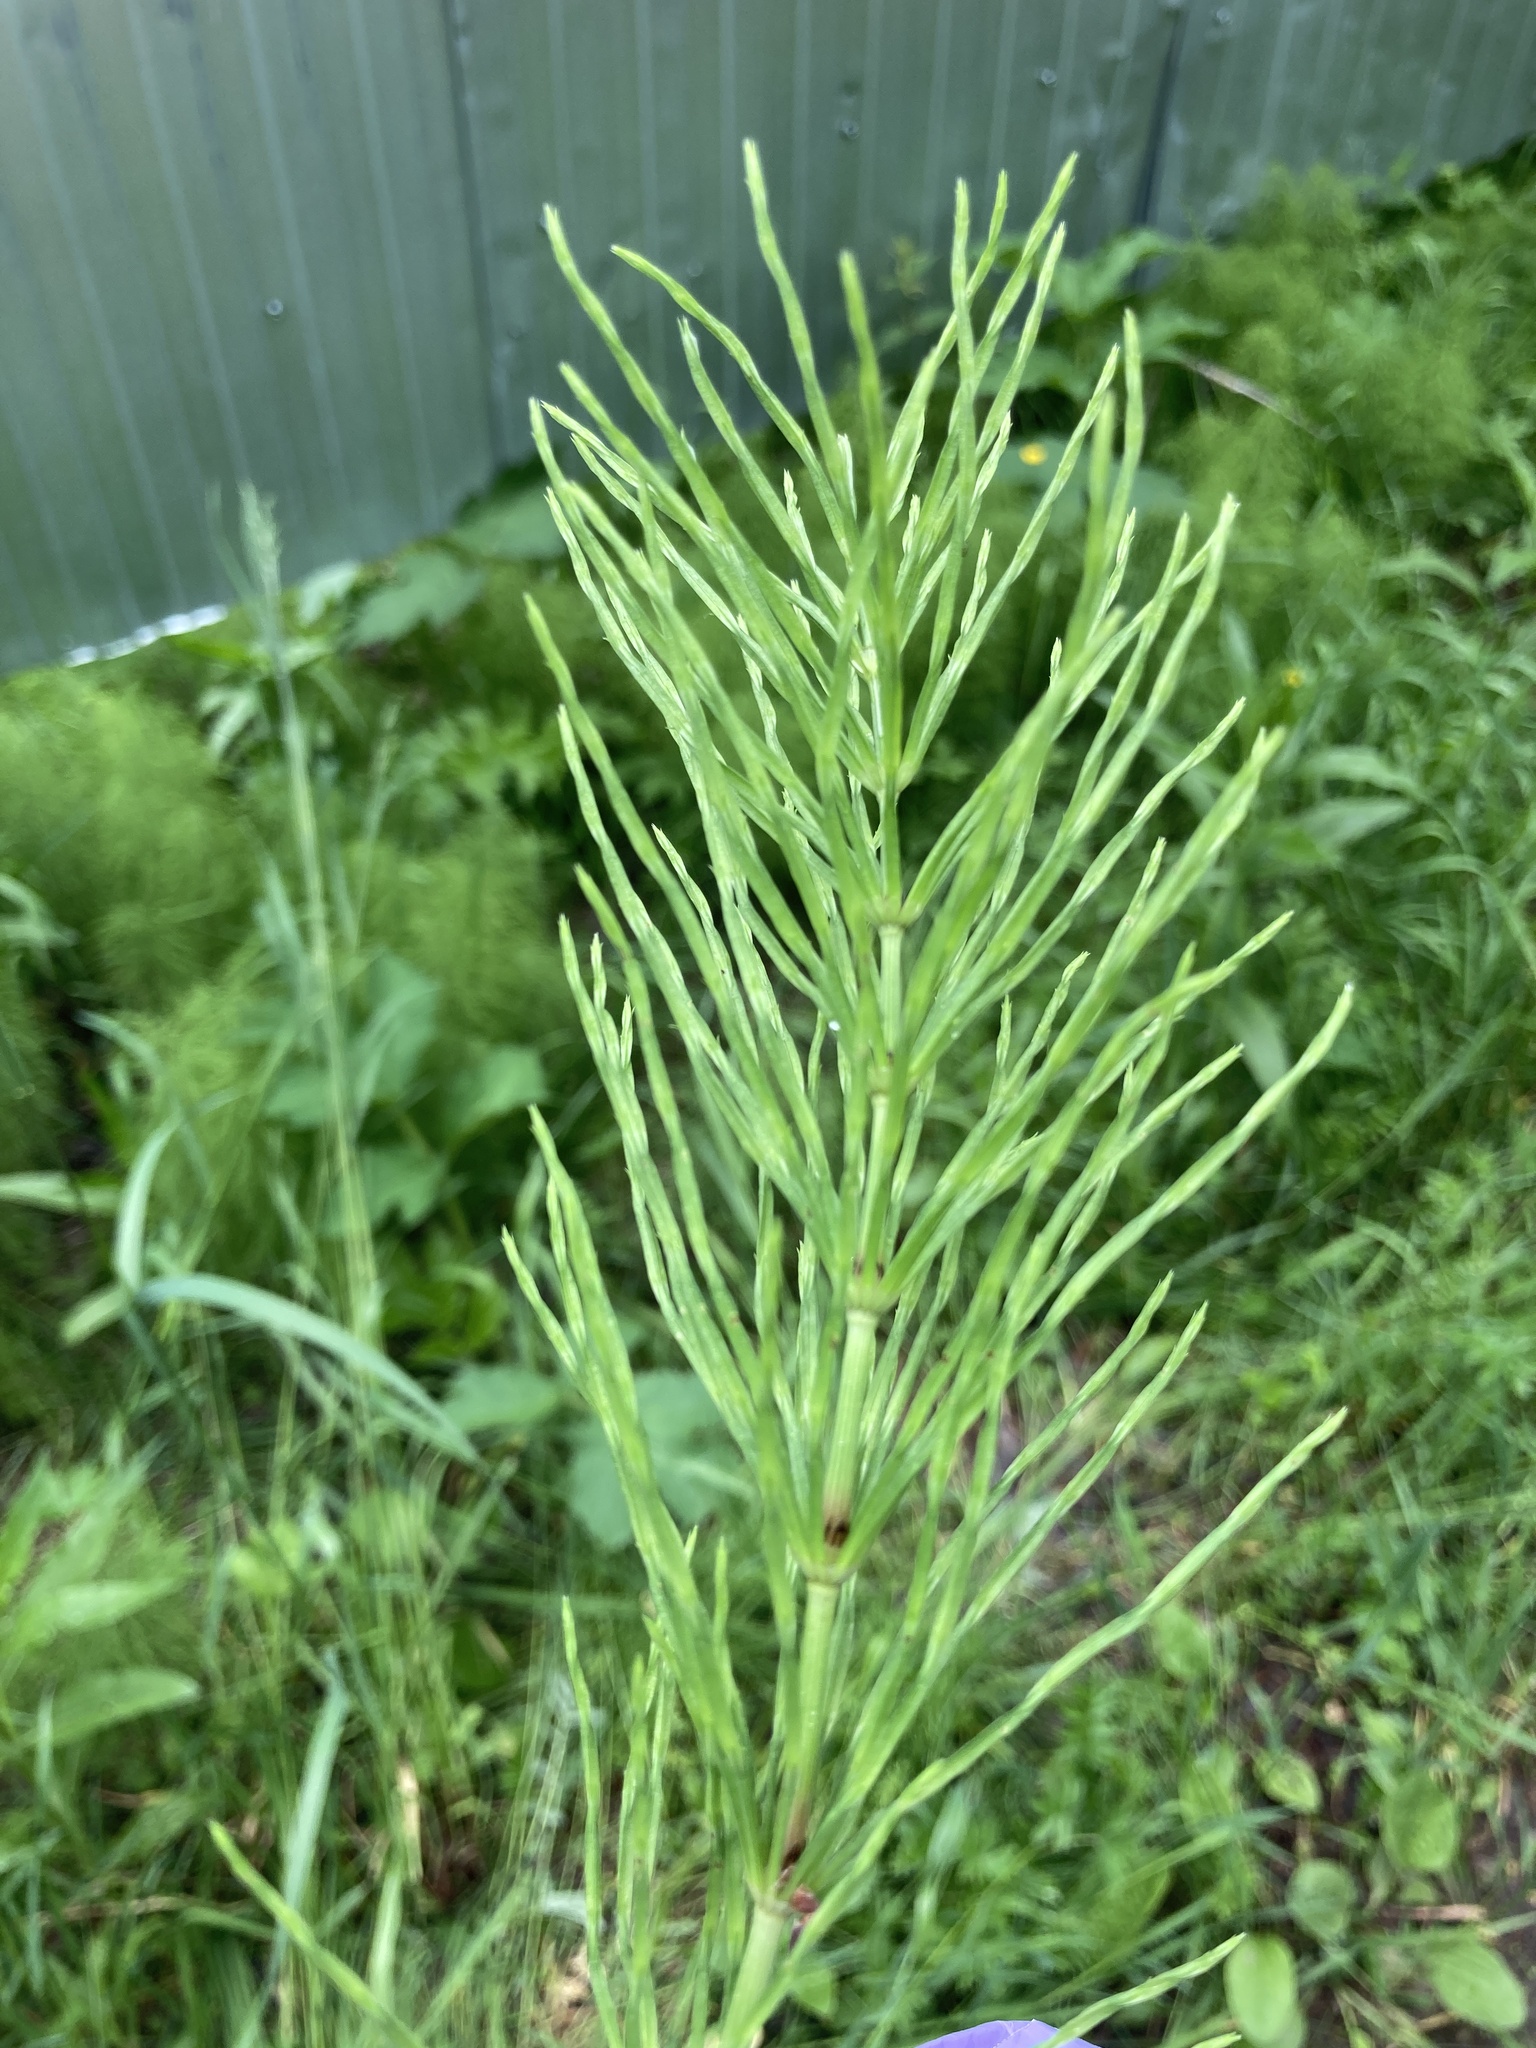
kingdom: Plantae
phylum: Tracheophyta
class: Polypodiopsida
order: Equisetales
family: Equisetaceae
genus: Equisetum
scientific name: Equisetum arvense
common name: Field horsetail
